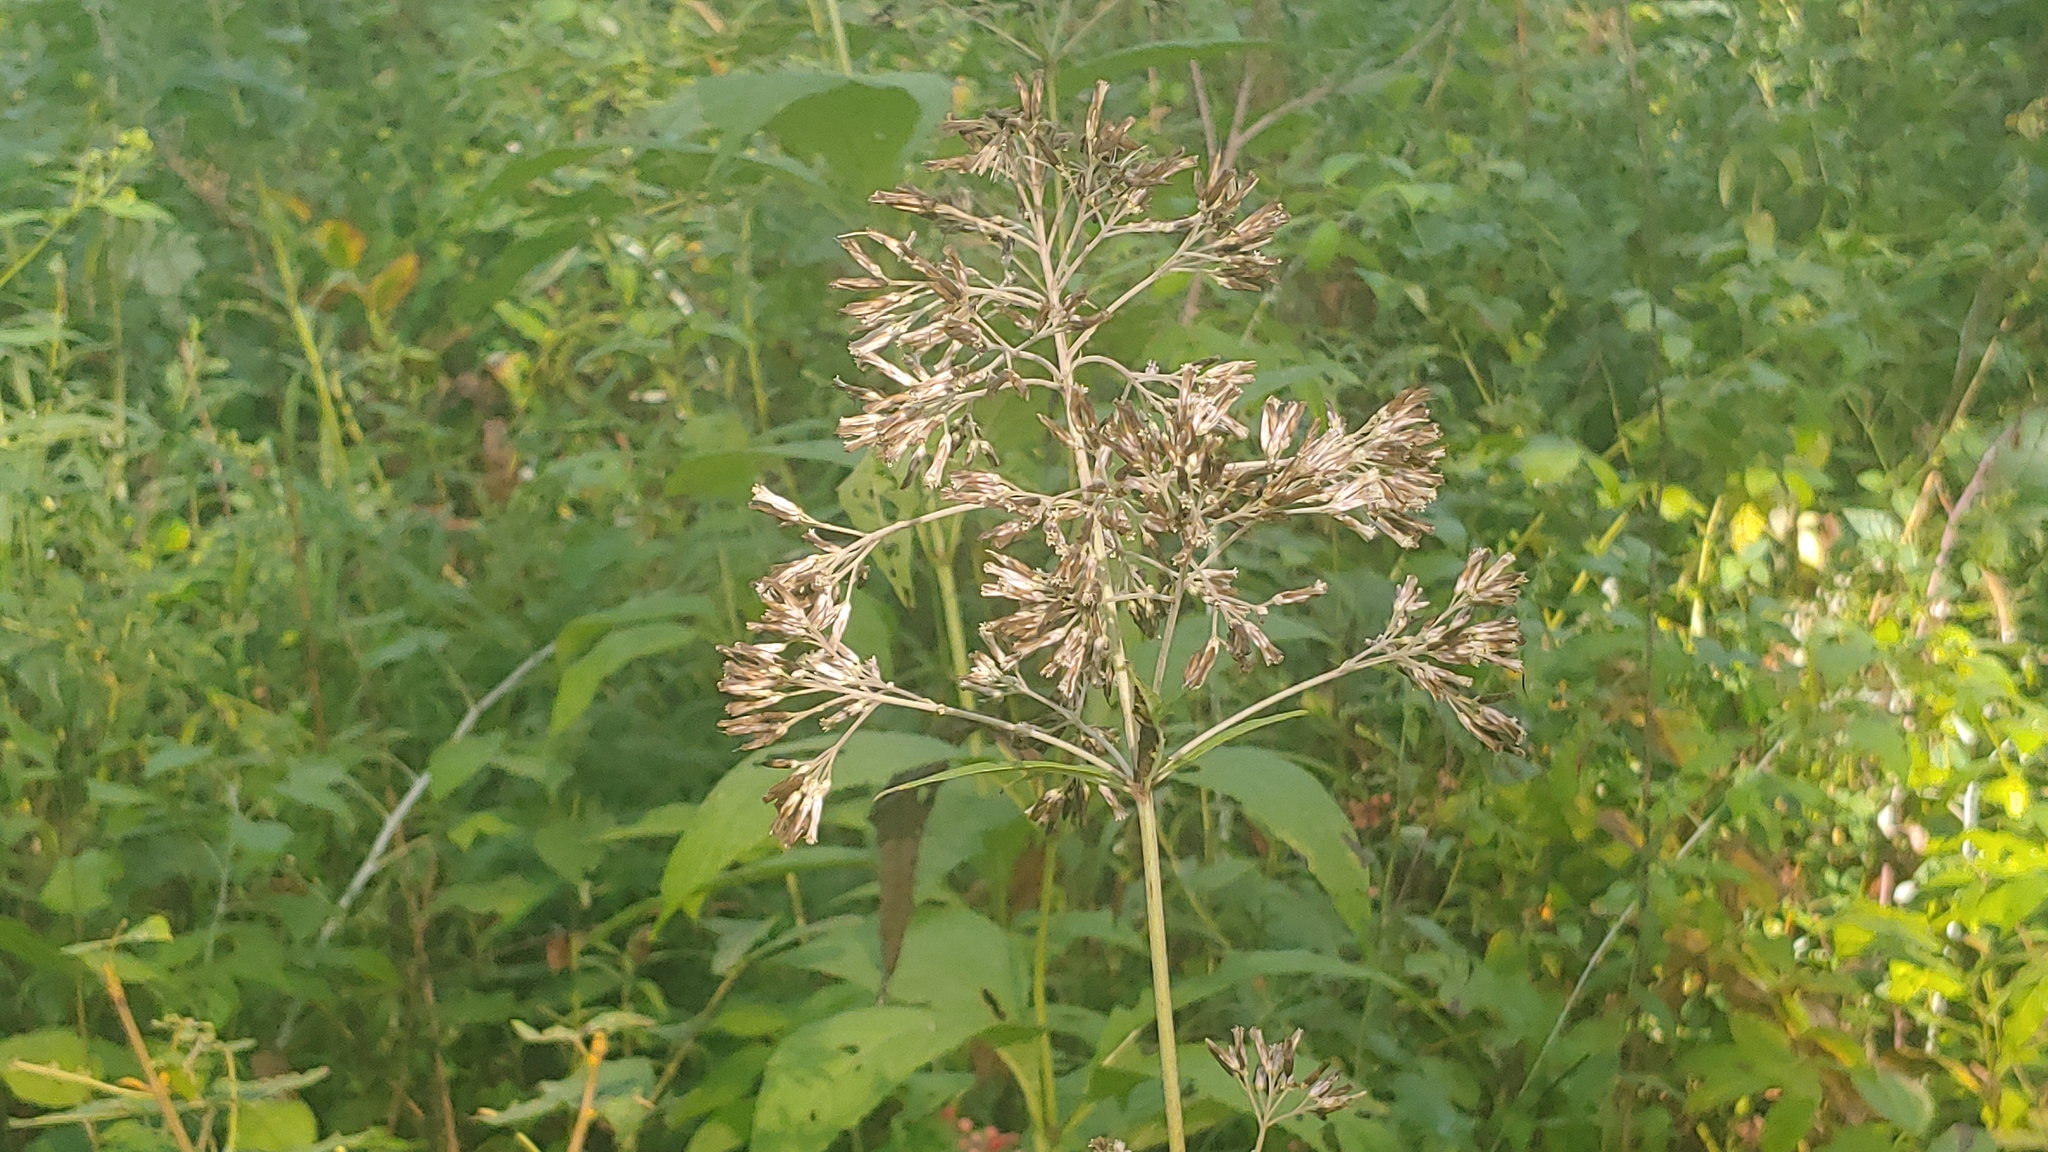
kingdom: Plantae
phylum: Tracheophyta
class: Magnoliopsida
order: Asterales
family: Asteraceae
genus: Eutrochium
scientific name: Eutrochium purpureum
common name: Gravelroot
